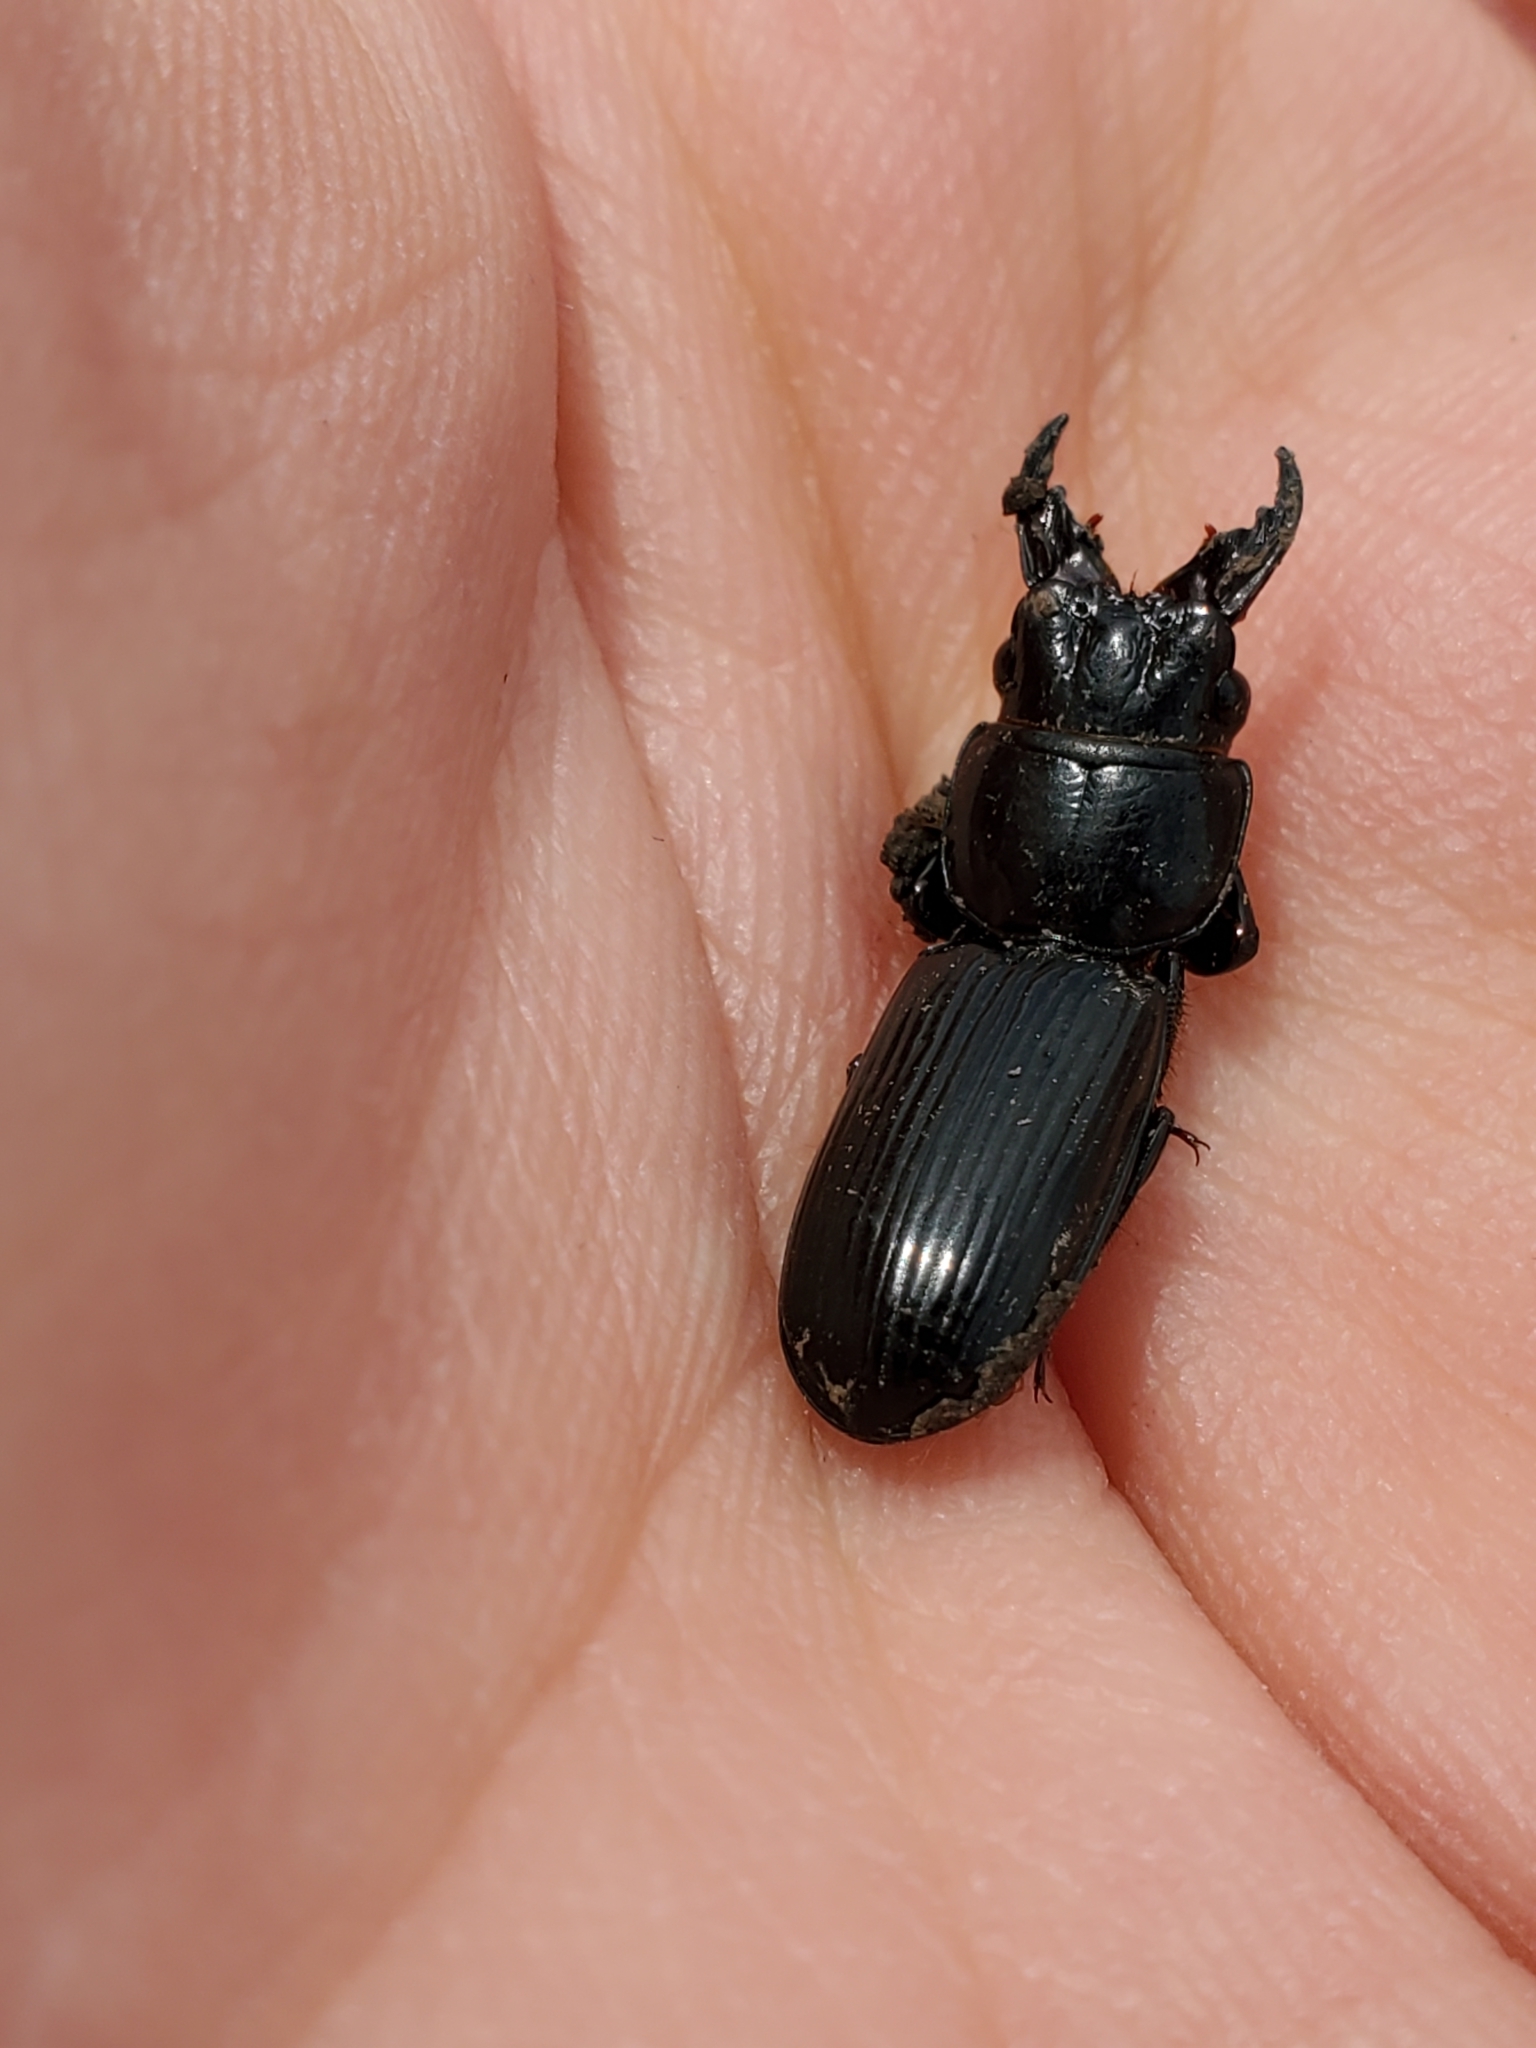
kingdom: Animalia
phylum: Arthropoda
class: Insecta
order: Coleoptera
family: Carabidae
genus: Scarites
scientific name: Scarites subterraneus
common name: Big-headed ground beetle
